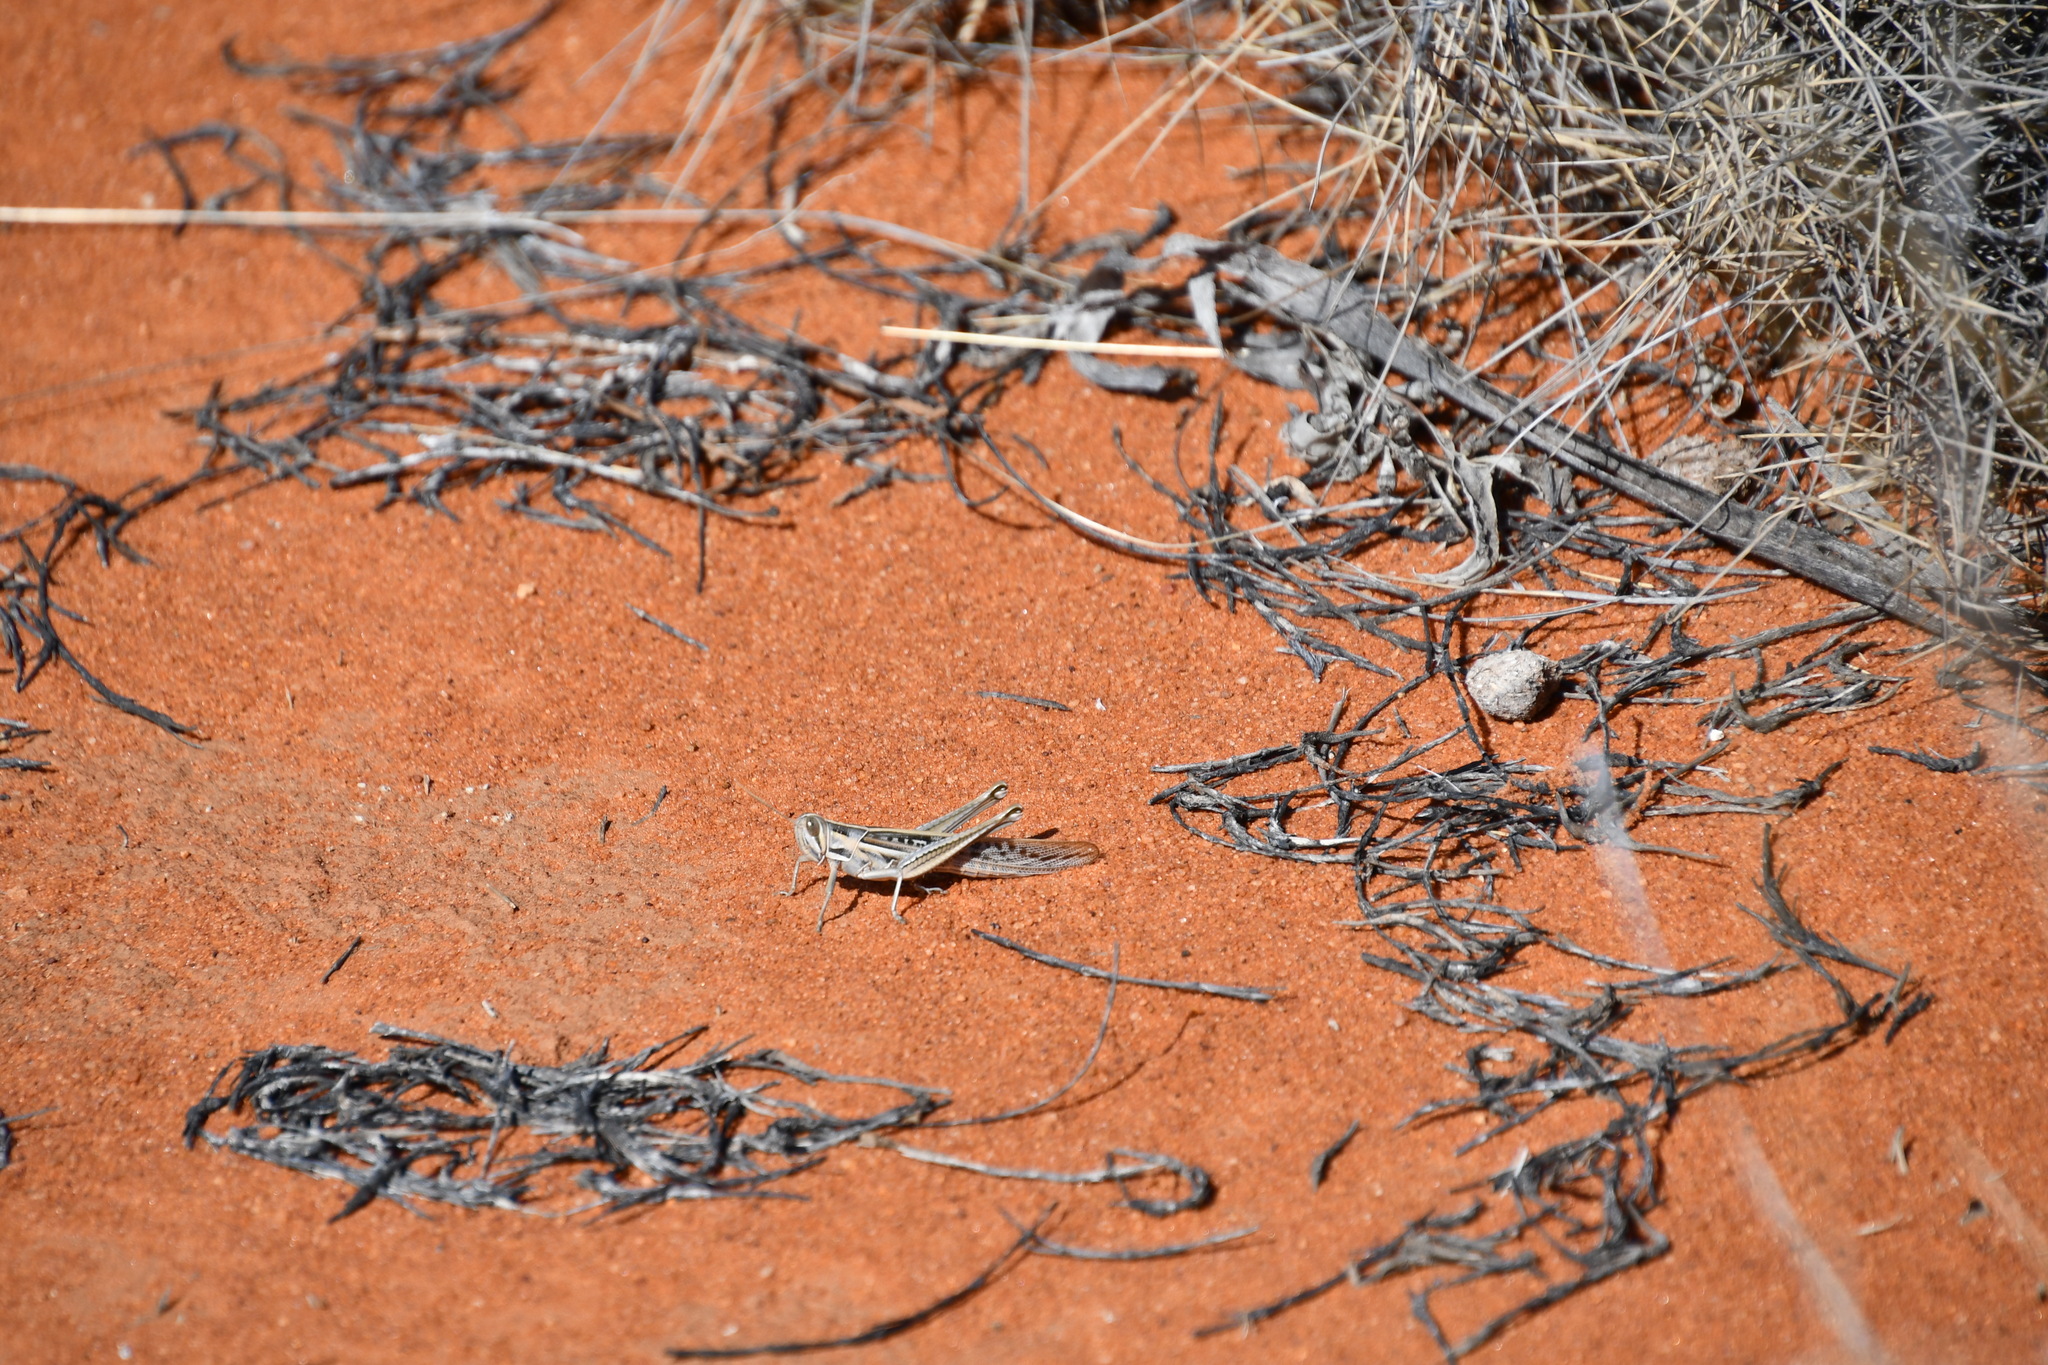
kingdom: Animalia
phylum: Arthropoda
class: Insecta
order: Orthoptera
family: Acrididae
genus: Austracris
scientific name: Austracris guttulosa
